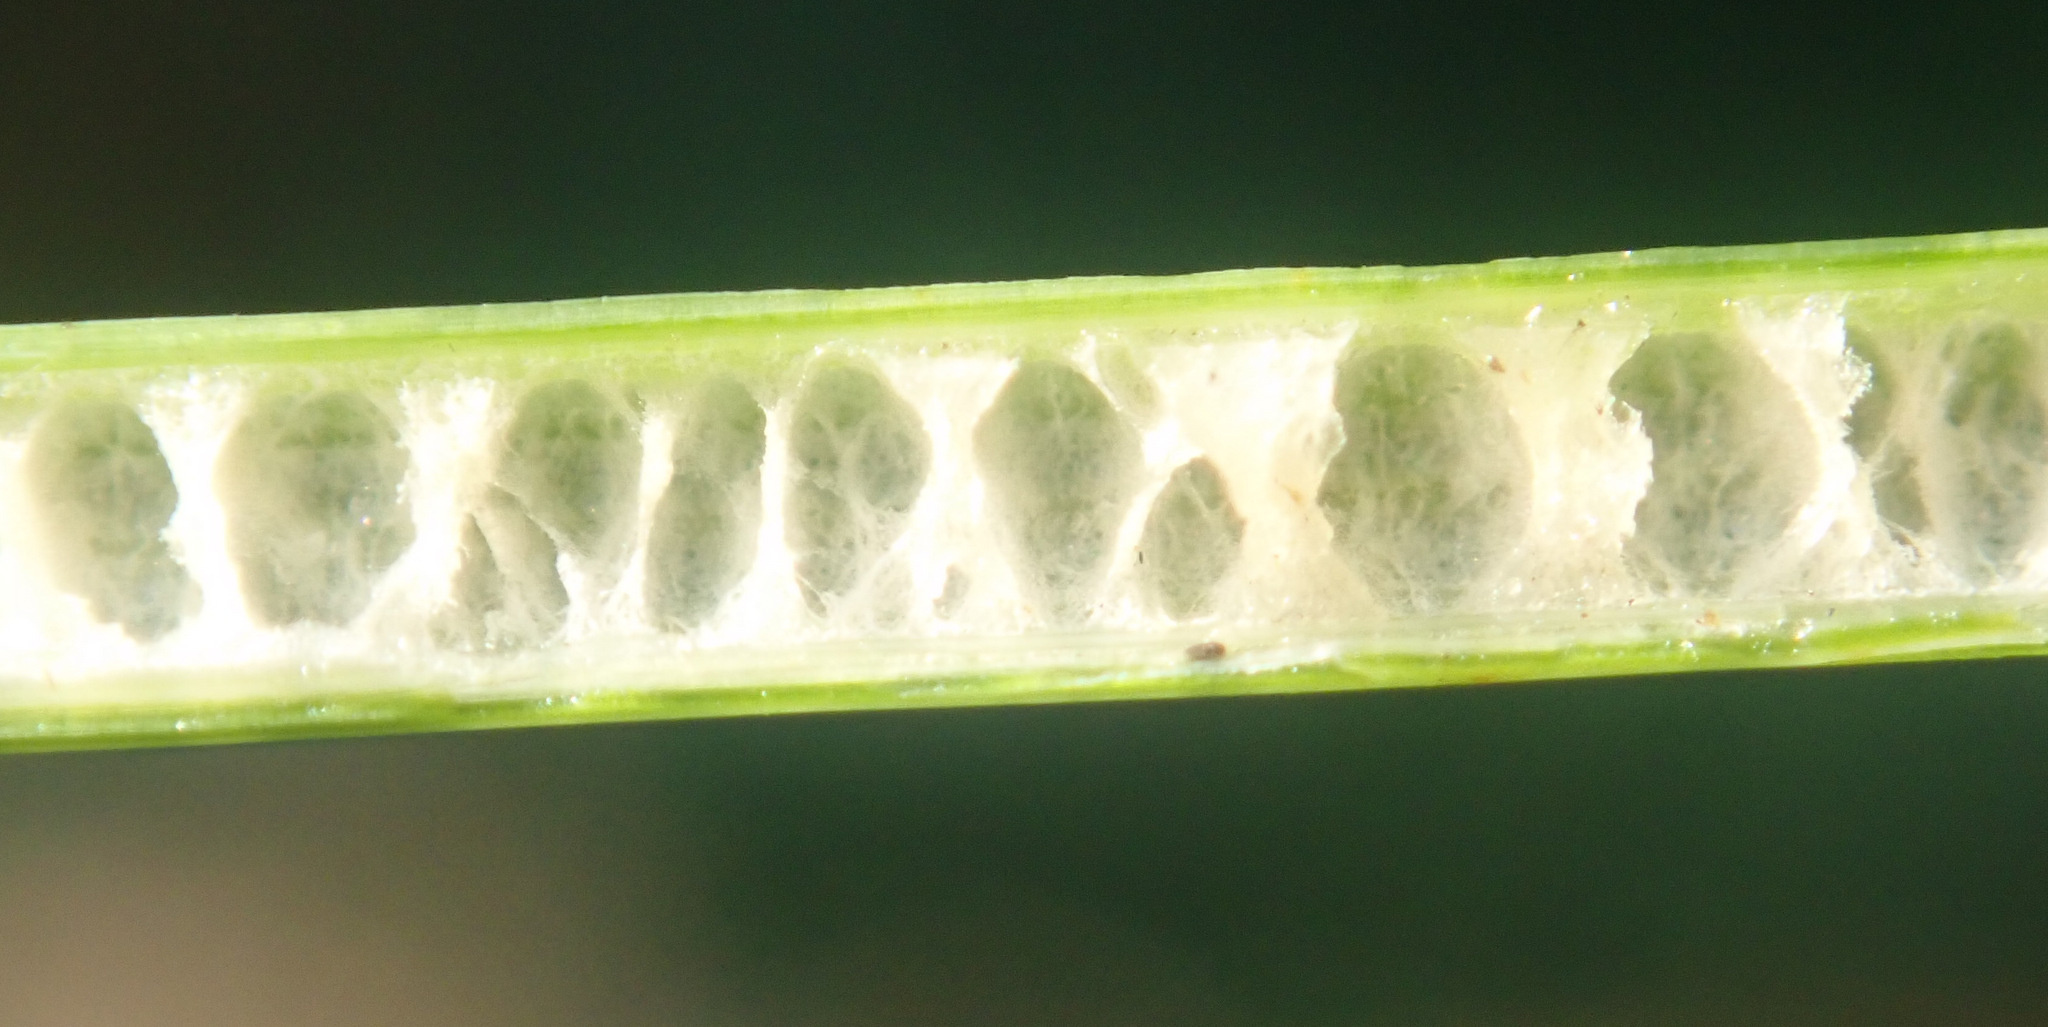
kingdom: Plantae
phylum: Tracheophyta
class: Liliopsida
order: Poales
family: Juncaceae
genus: Juncus
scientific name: Juncus inflexus
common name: Hard rush
